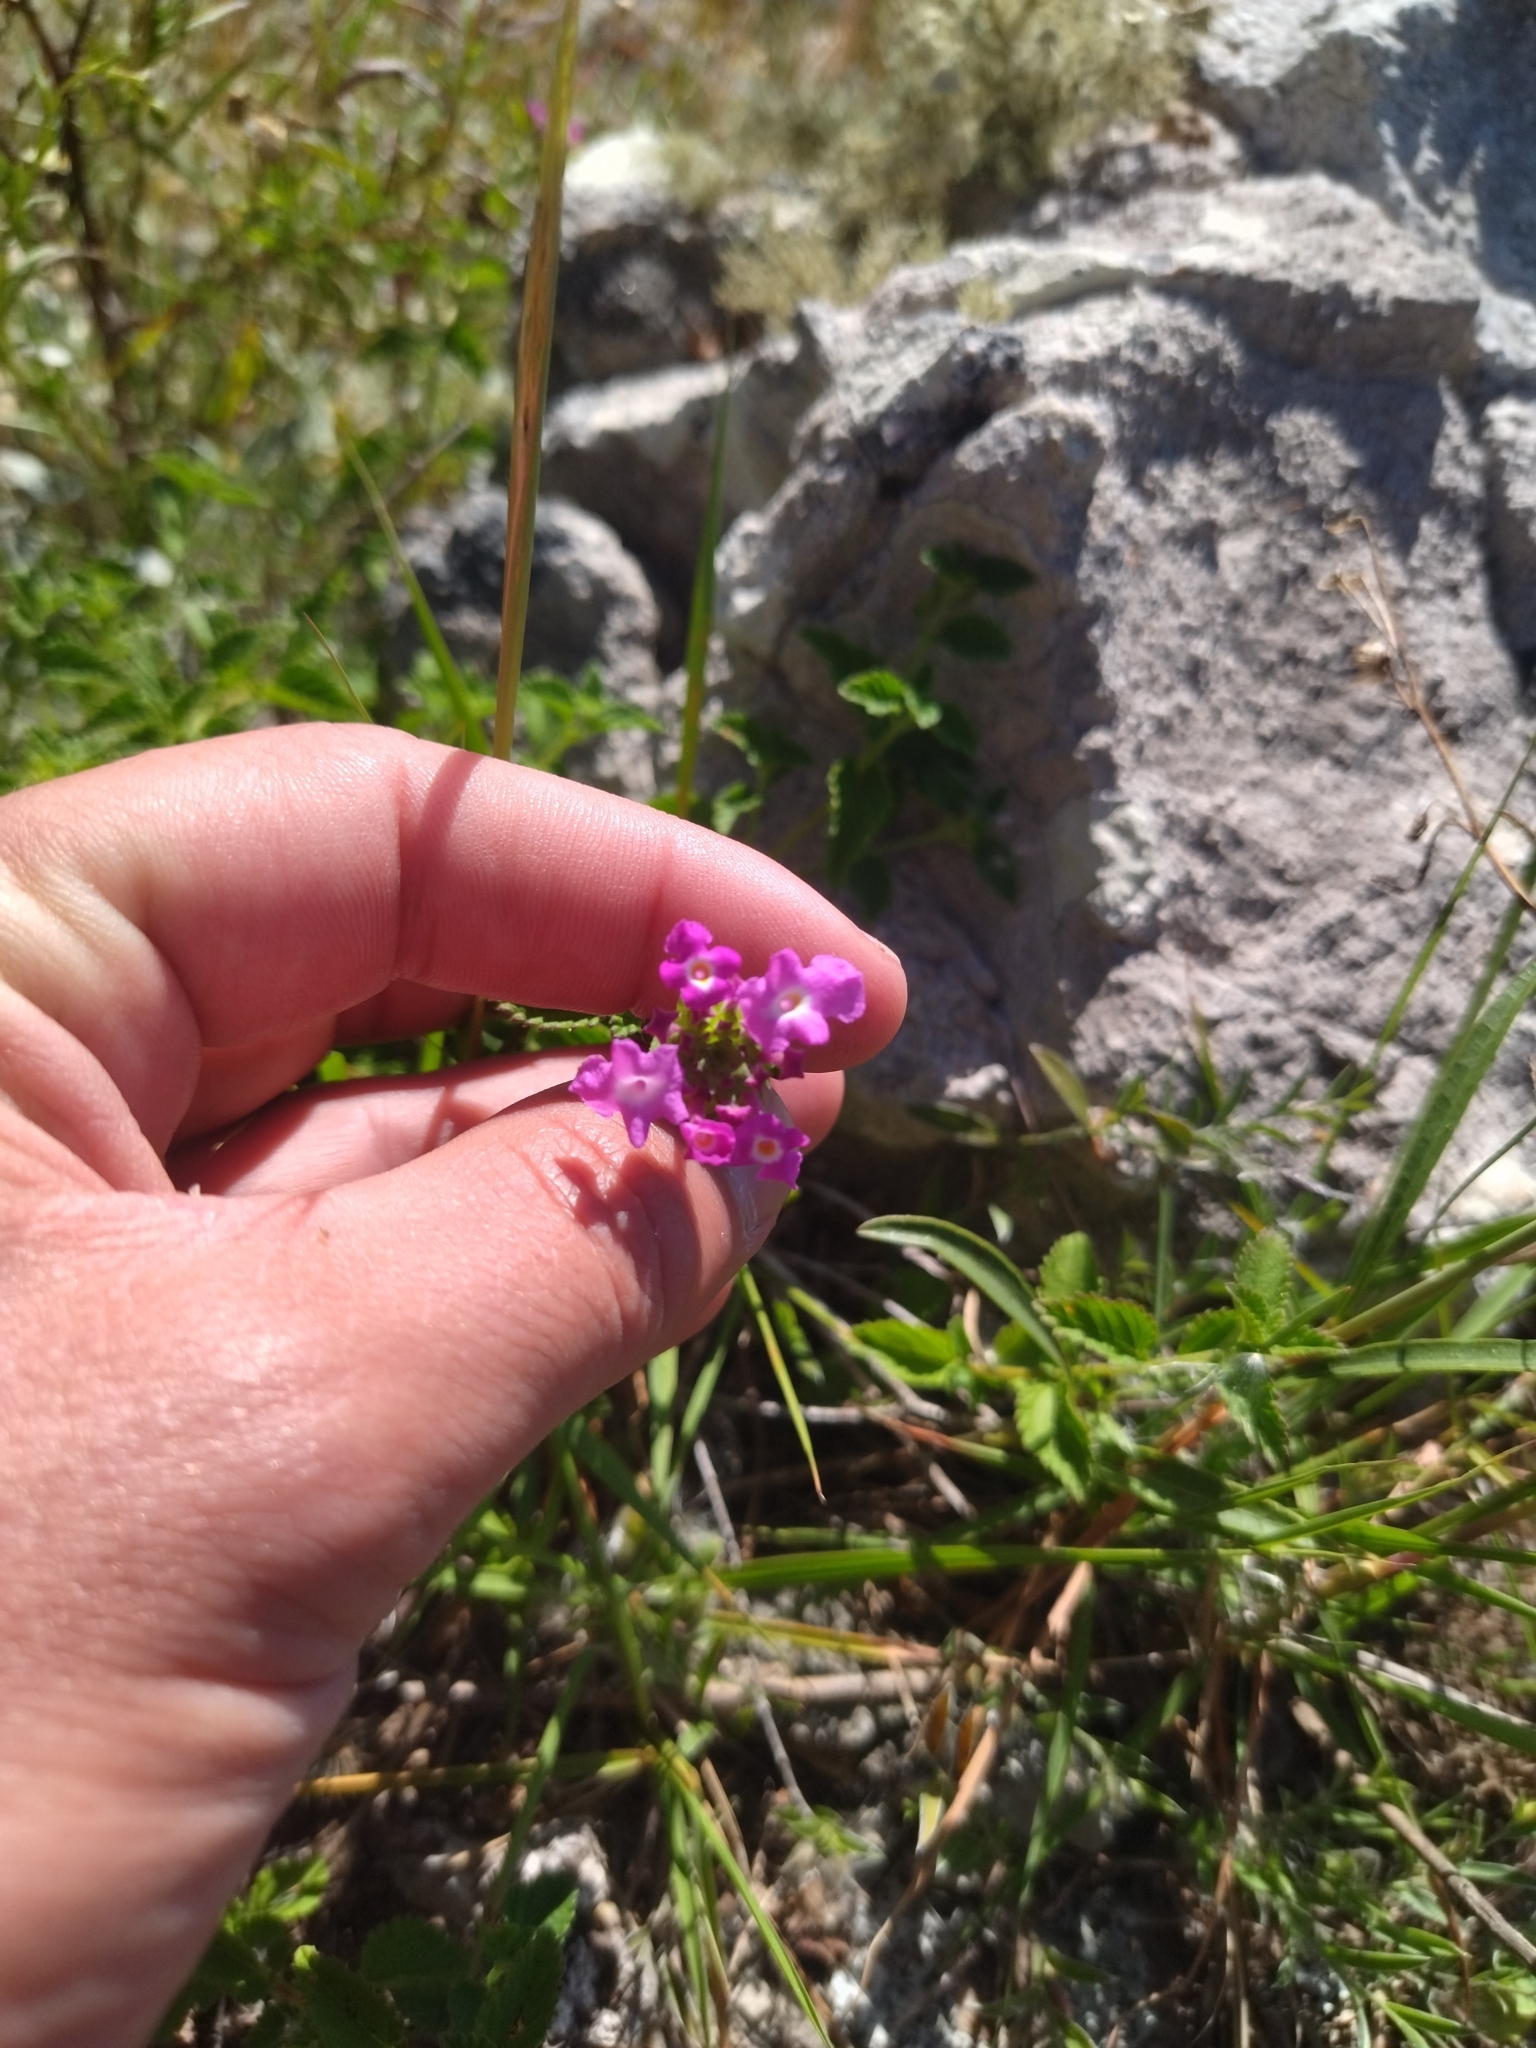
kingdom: Plantae
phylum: Tracheophyta
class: Magnoliopsida
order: Lamiales
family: Verbenaceae
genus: Lantana
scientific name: Lantana montevidensis
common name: Trailing shrubverbena
